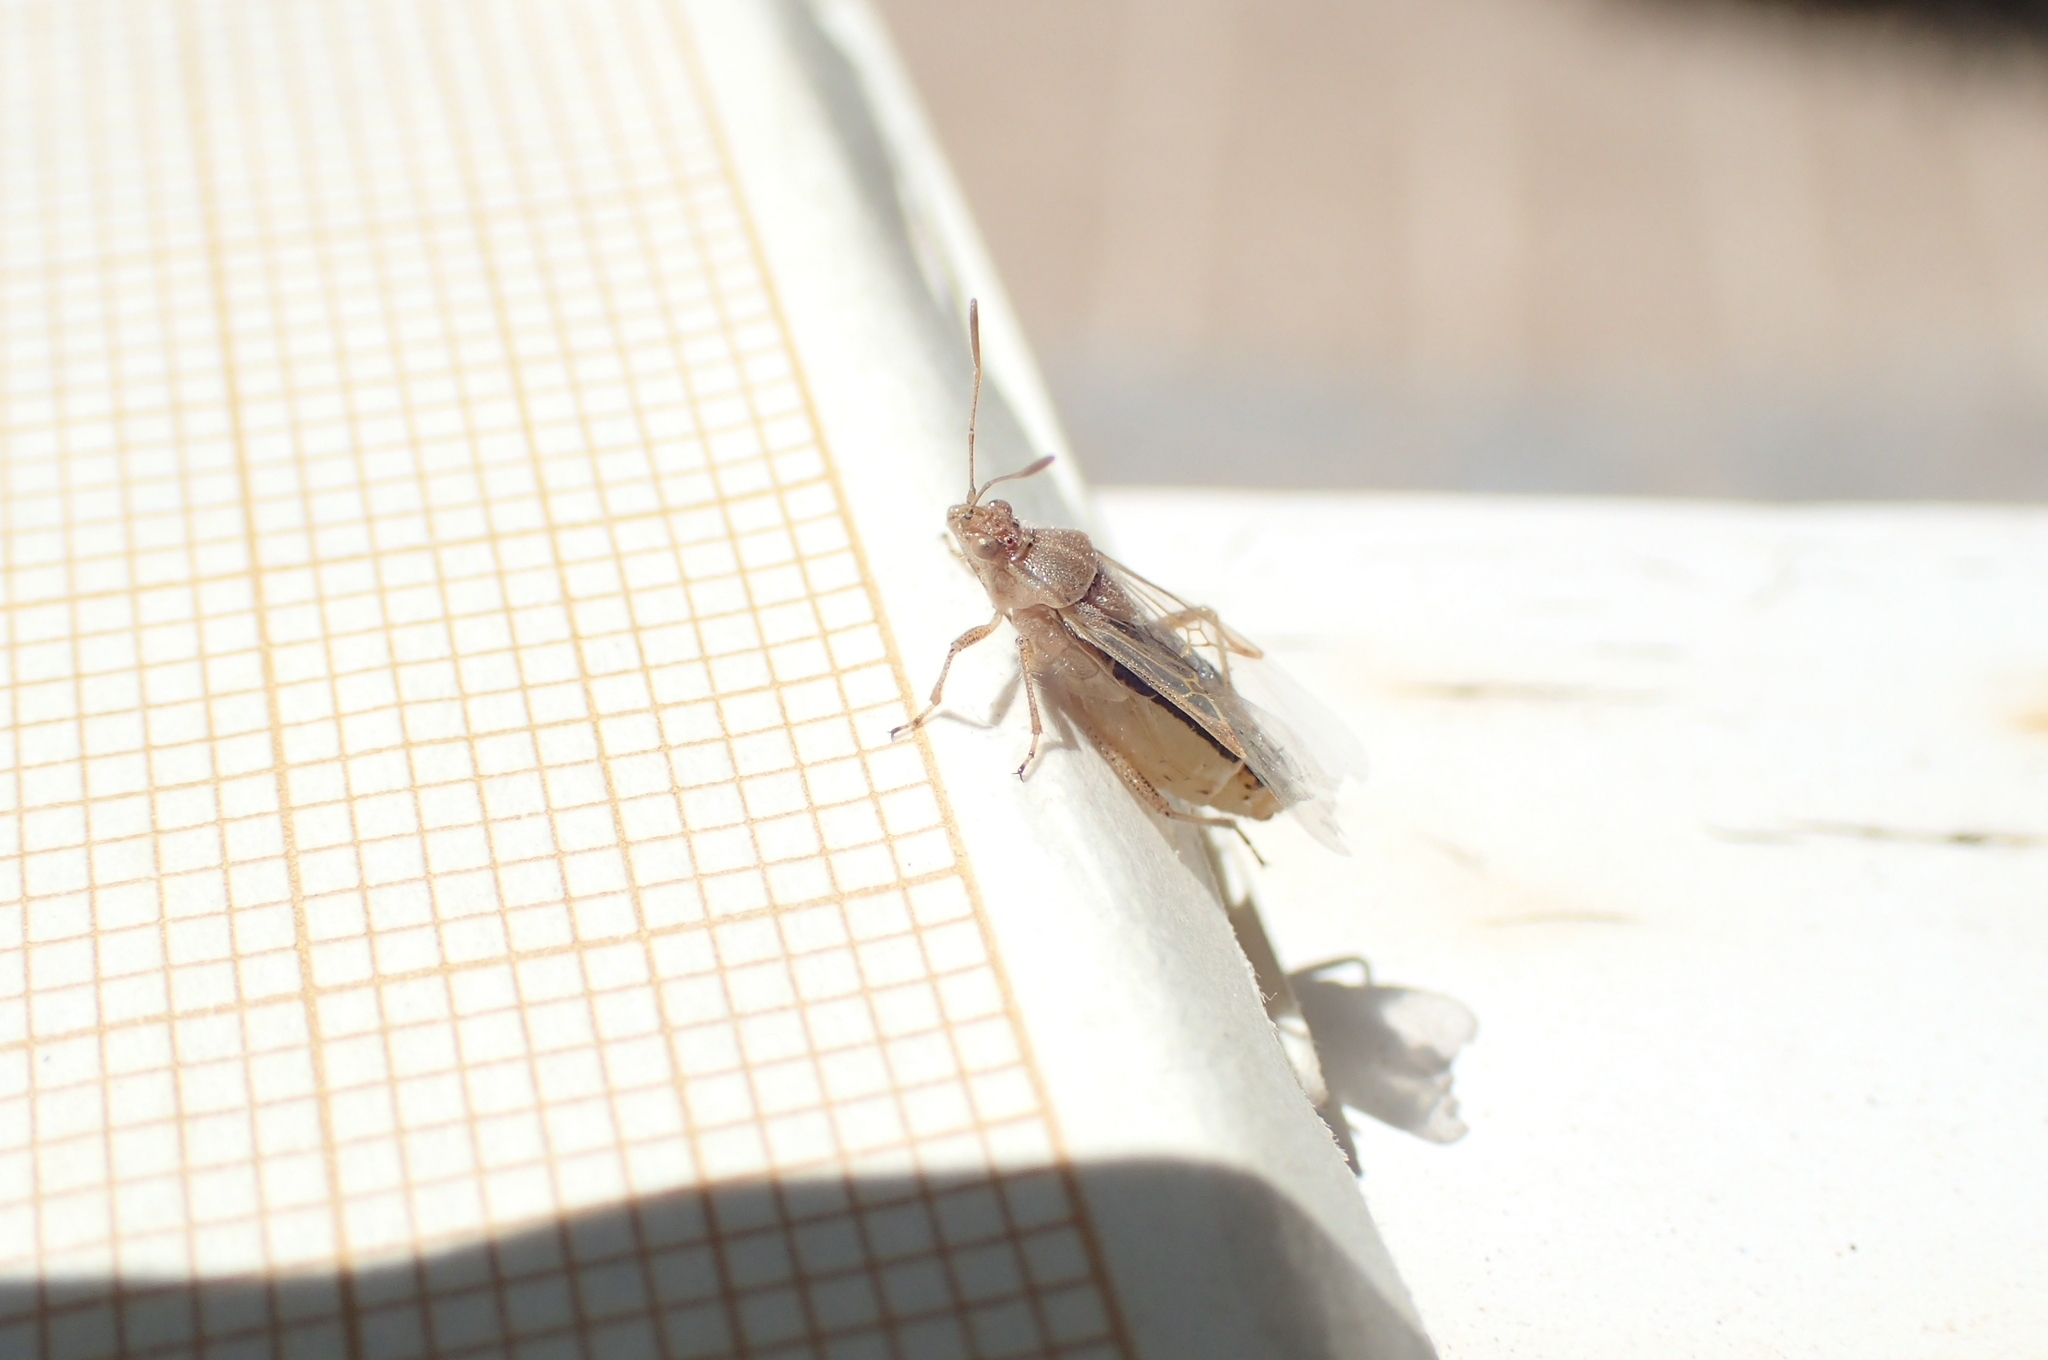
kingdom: Animalia
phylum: Arthropoda
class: Insecta
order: Hemiptera
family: Rhopalidae
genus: Liorhyssus
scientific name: Liorhyssus hyalinus
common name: Scentless plant bug
